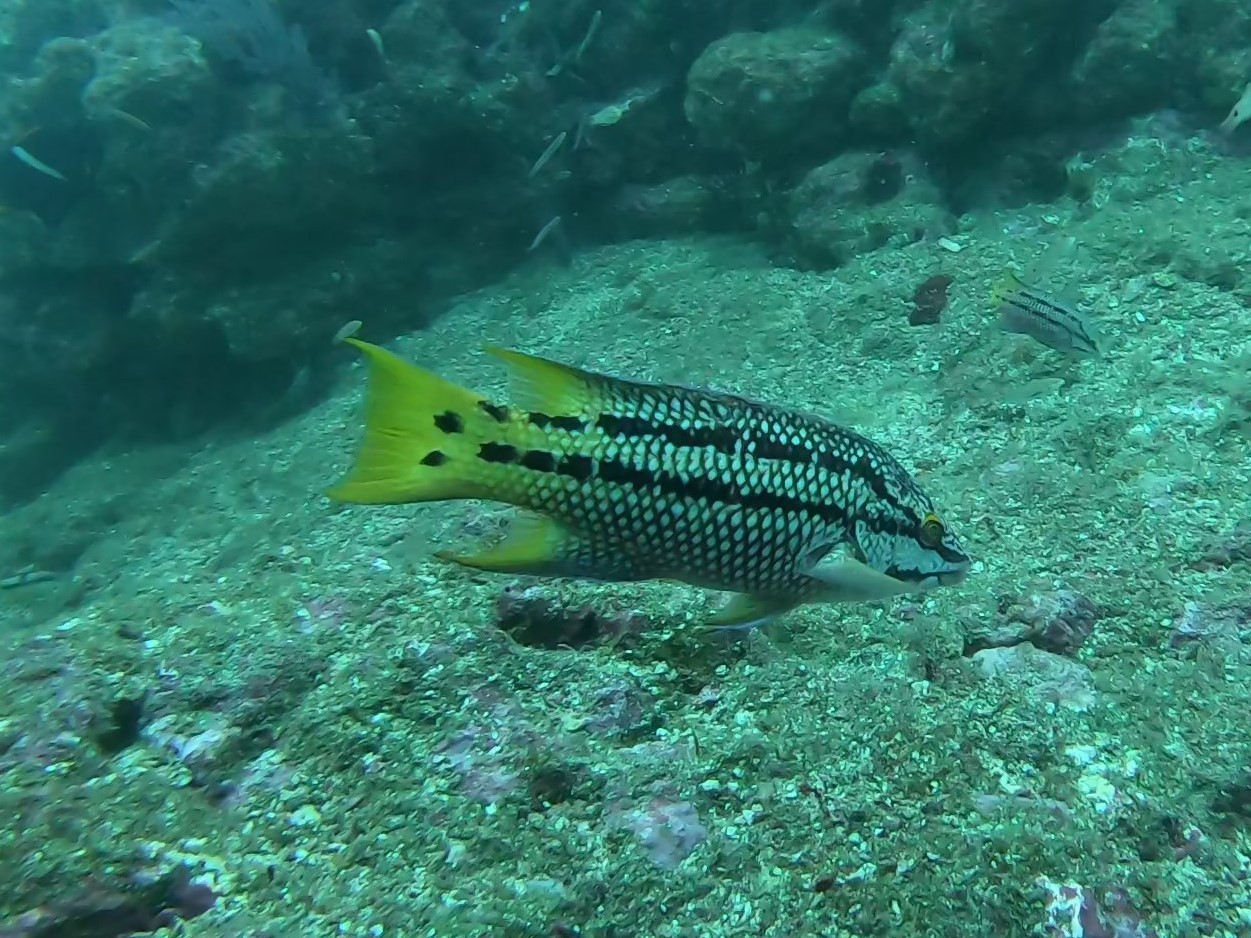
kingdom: Animalia
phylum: Chordata
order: Perciformes
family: Labridae
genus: Bodianus
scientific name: Bodianus diplotaenia
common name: Mexican hogfish
